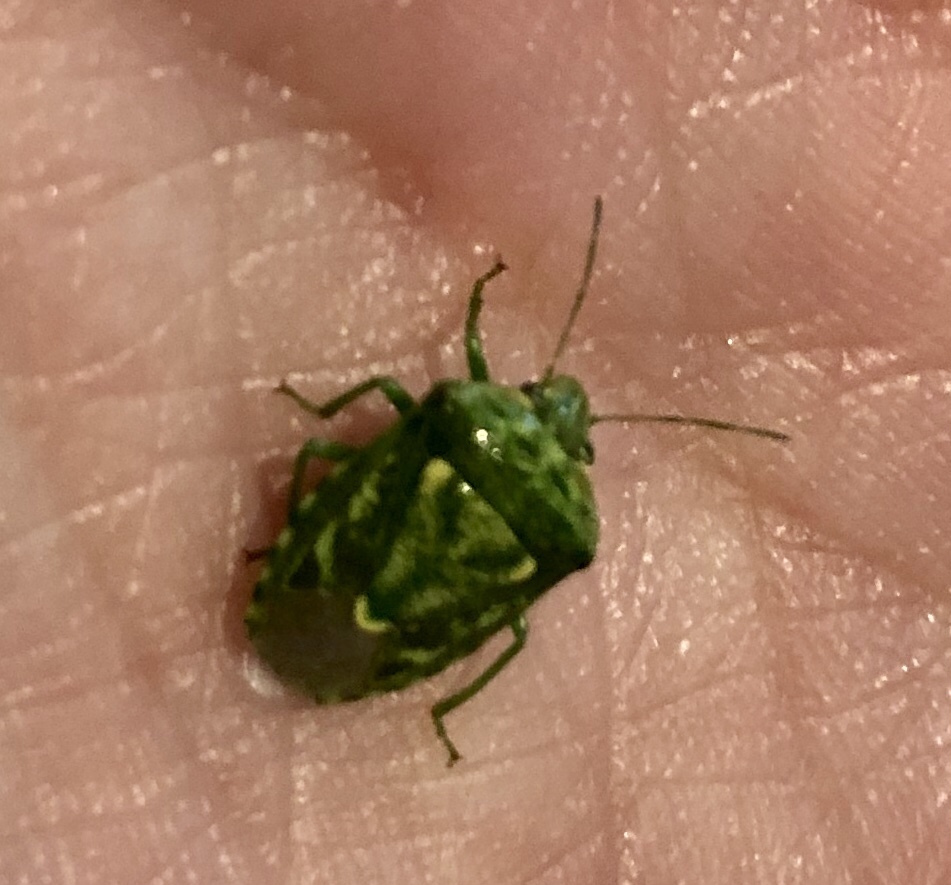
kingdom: Animalia
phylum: Arthropoda
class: Insecta
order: Hemiptera
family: Pentatomidae
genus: Banasa
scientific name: Banasa euchlora
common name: Cedar berry bug
